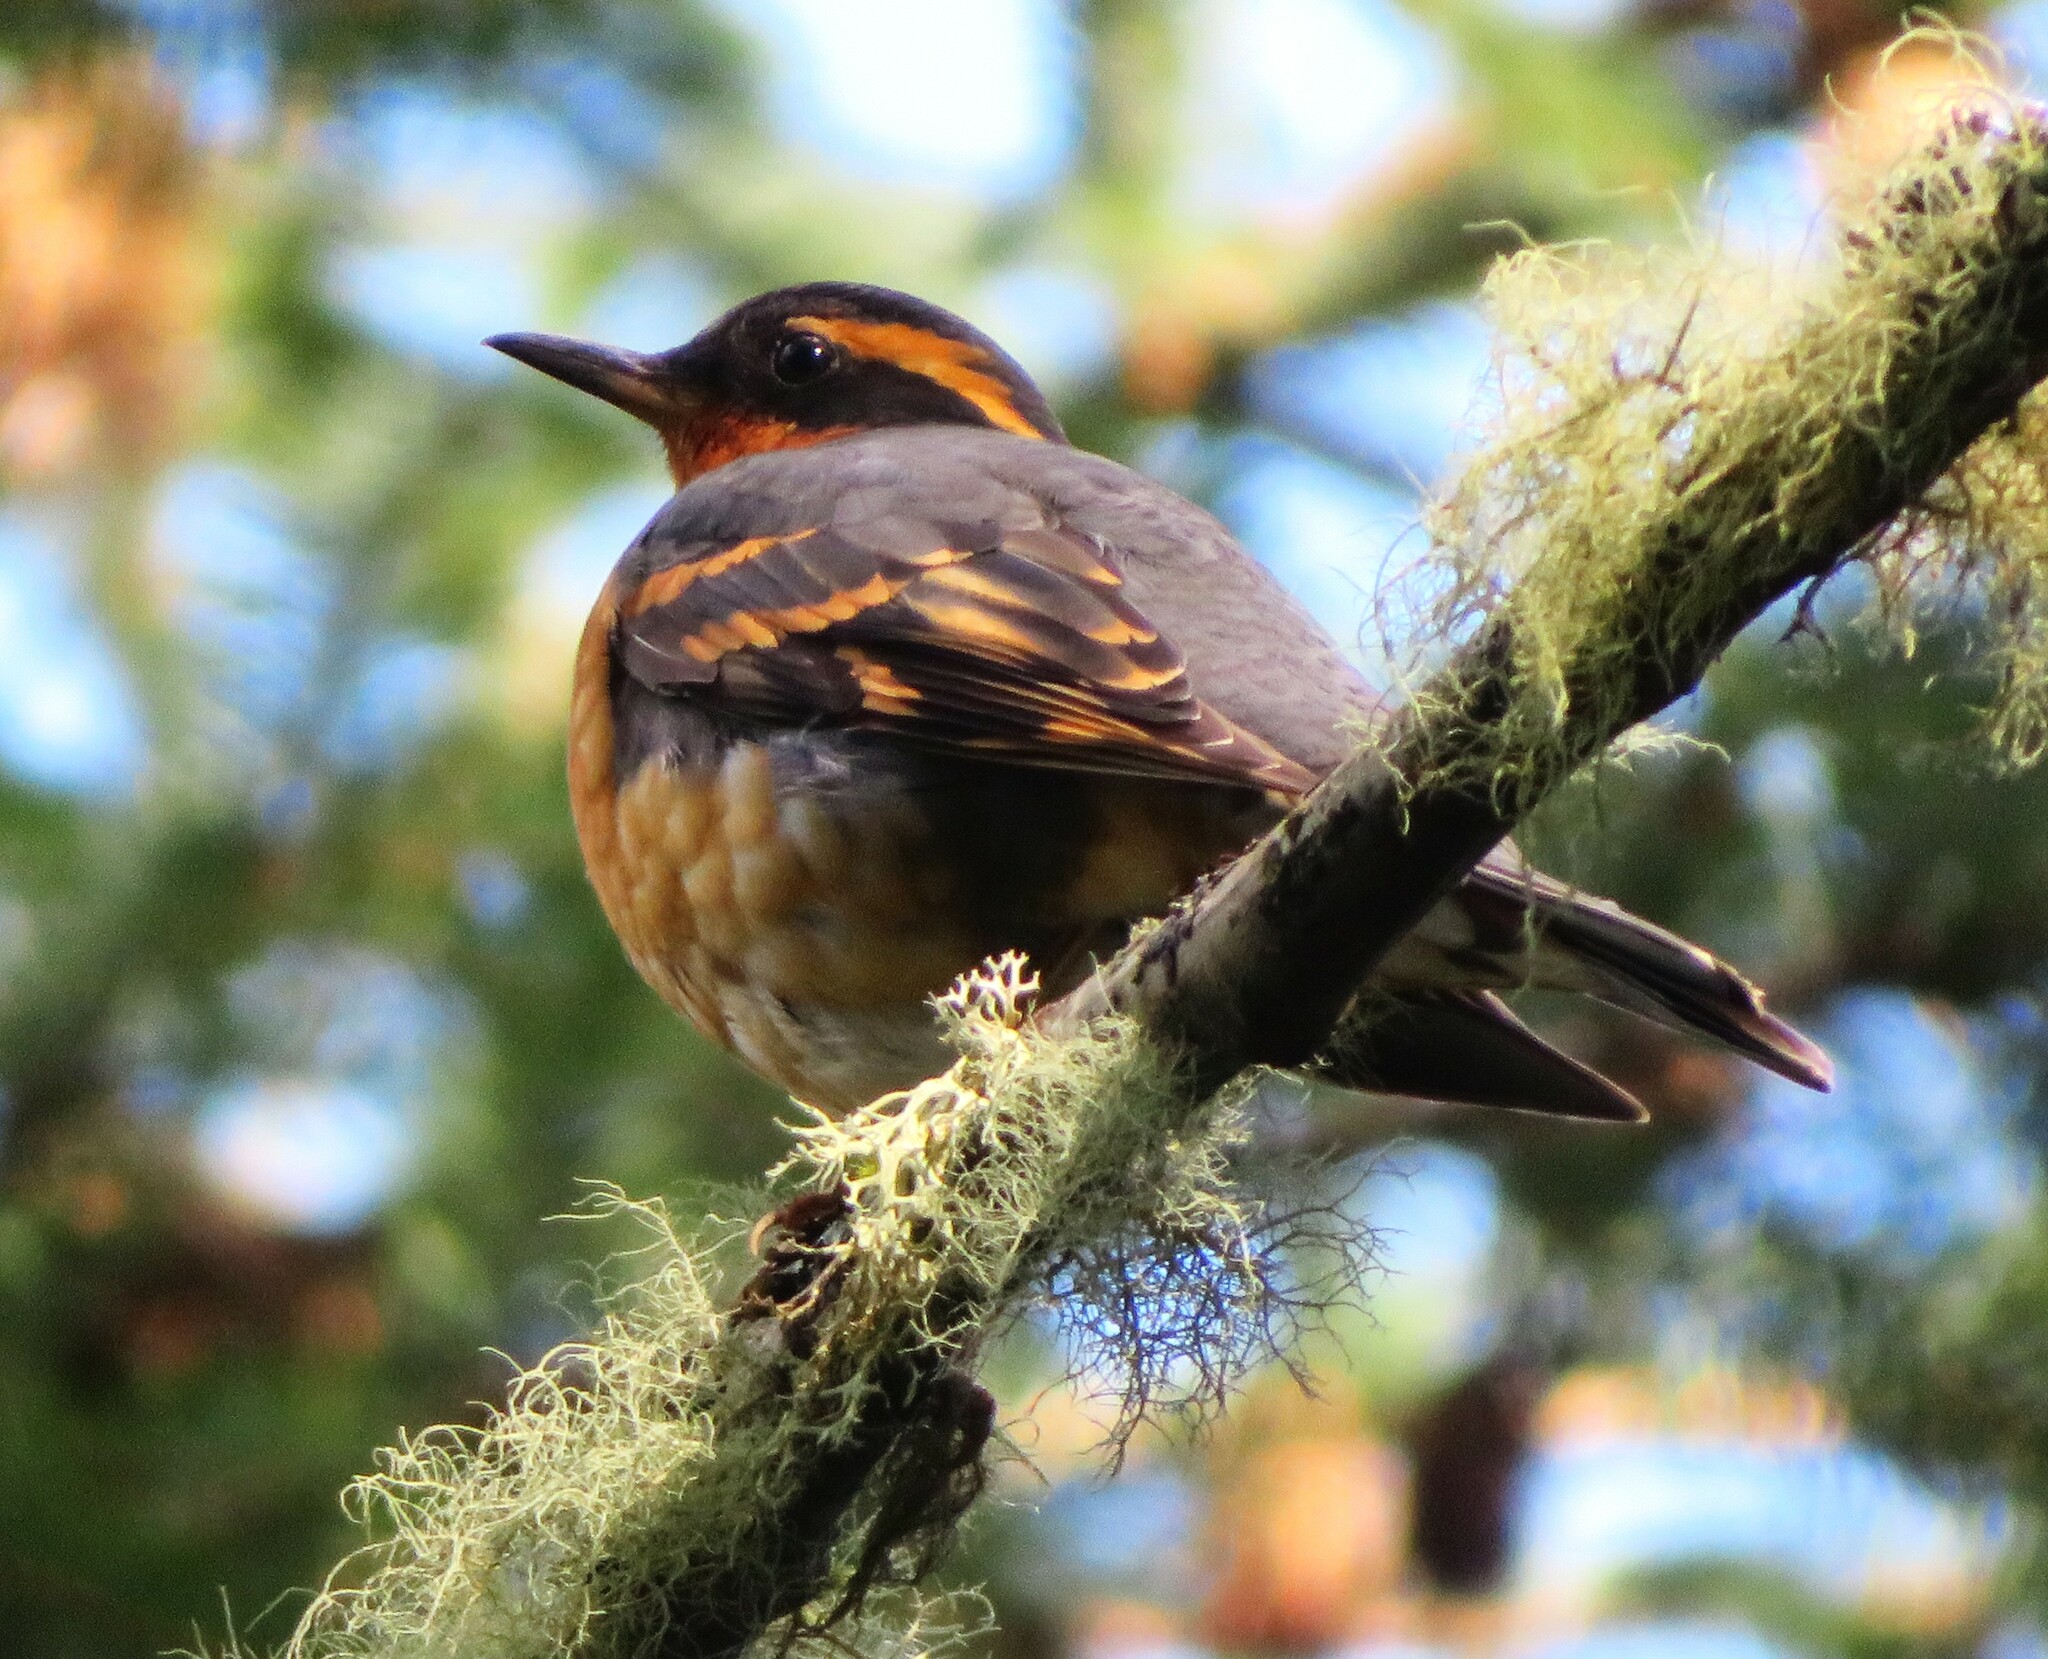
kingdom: Animalia
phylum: Chordata
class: Aves
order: Passeriformes
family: Turdidae
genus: Ixoreus
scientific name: Ixoreus naevius
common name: Varied thrush
